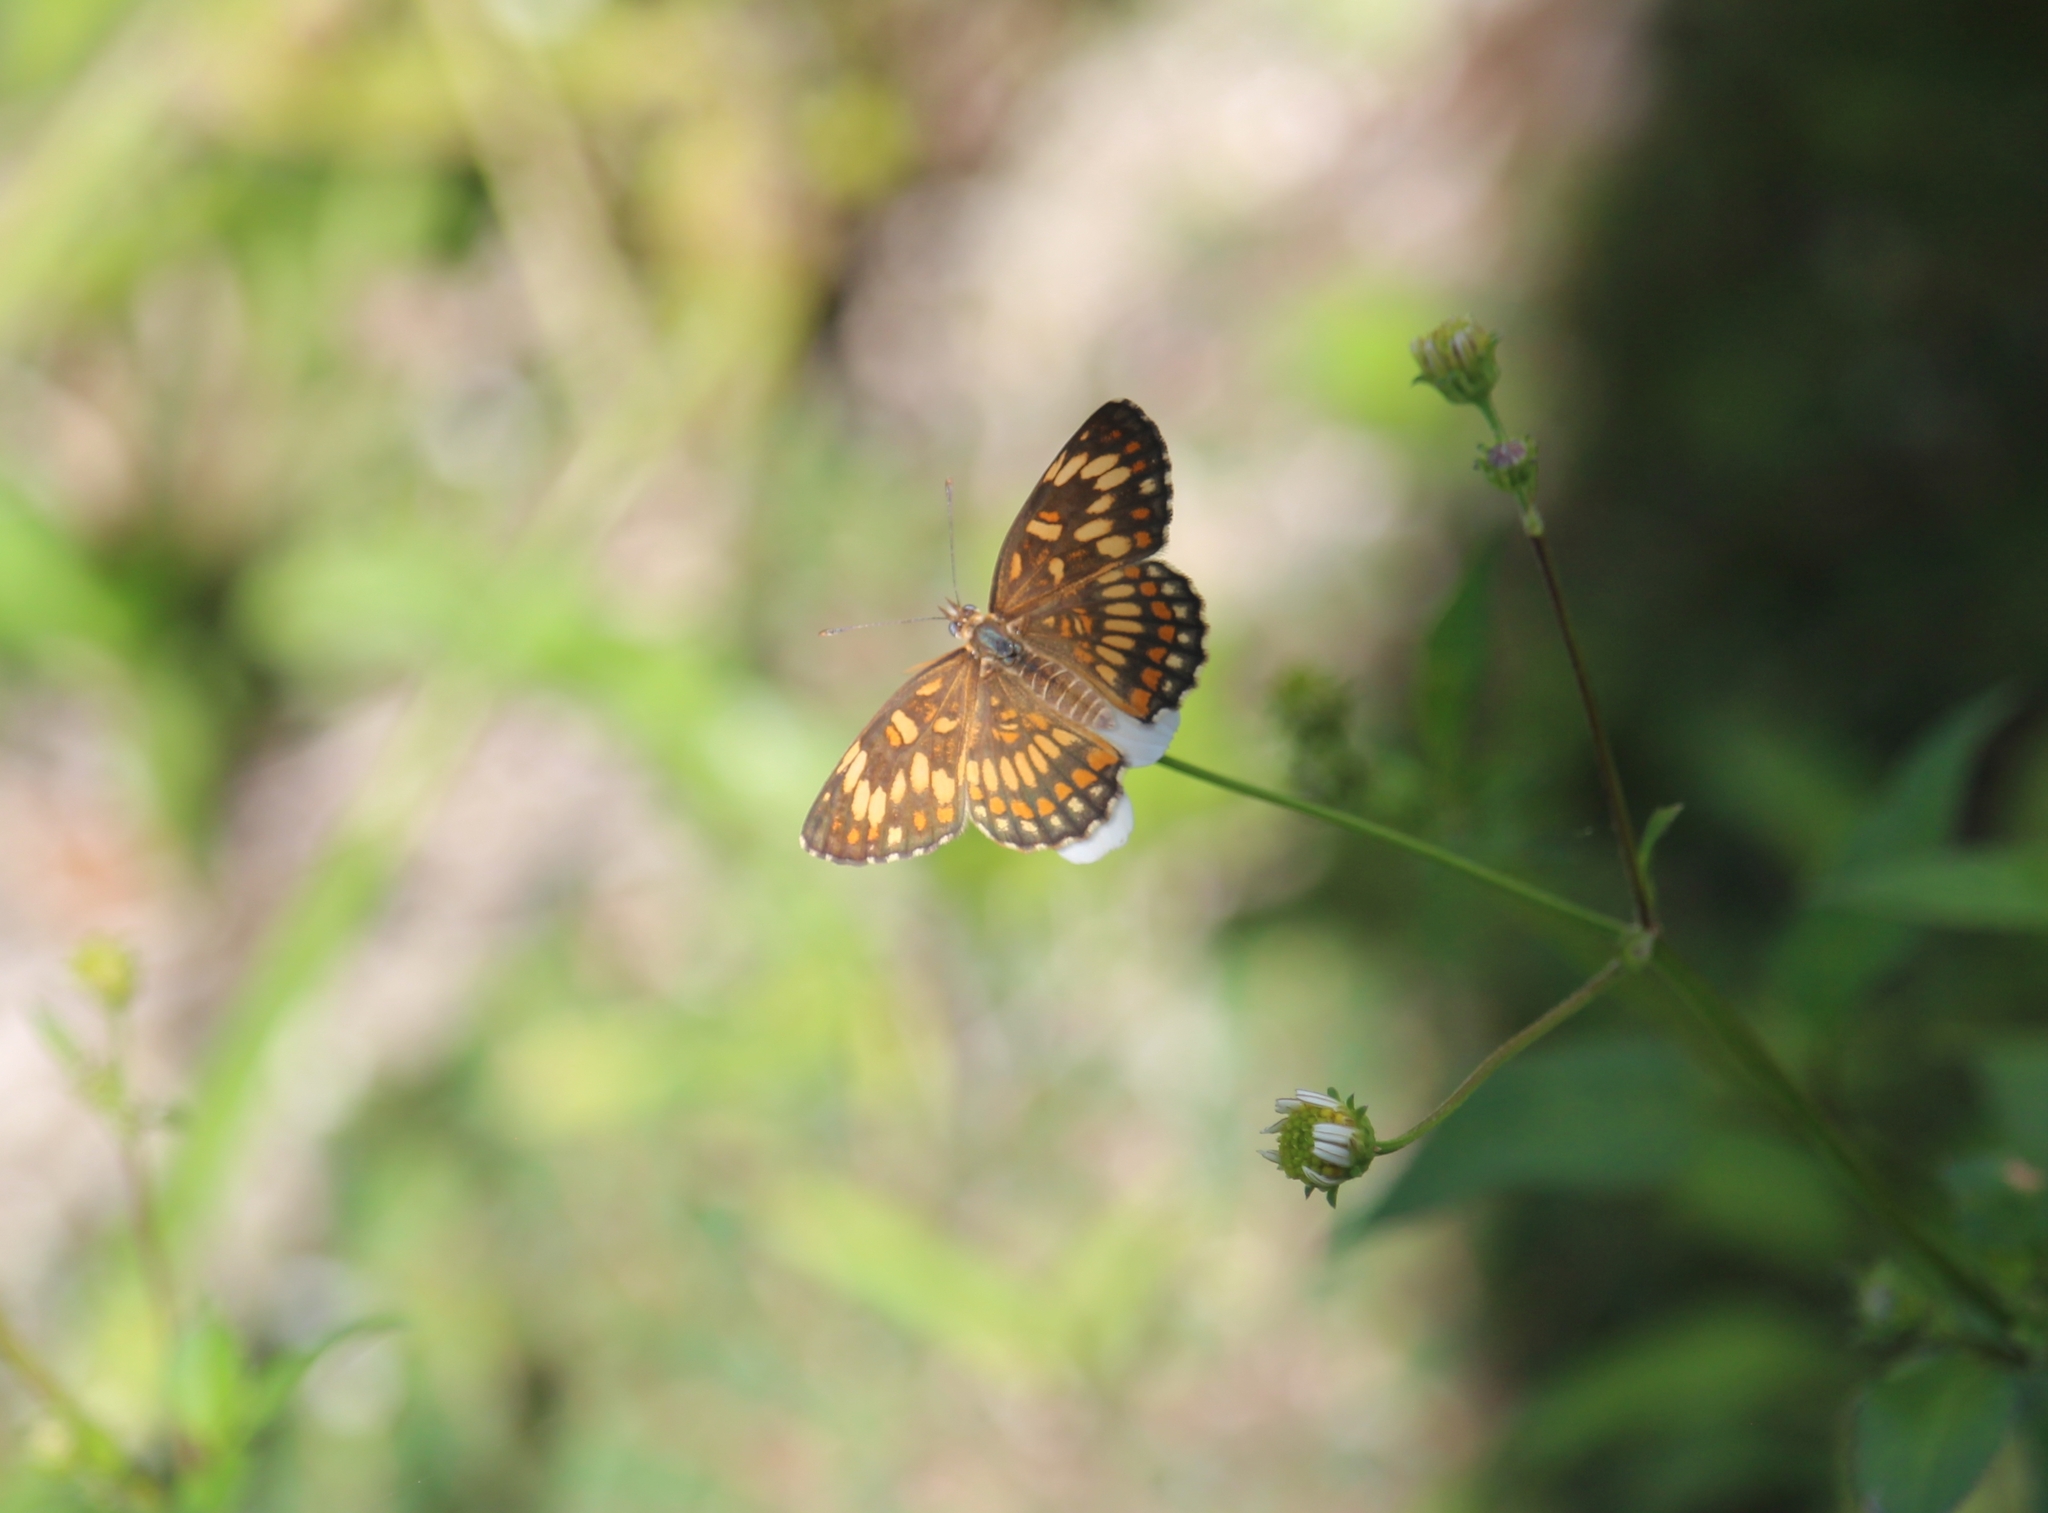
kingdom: Animalia
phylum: Arthropoda
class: Insecta
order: Lepidoptera
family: Nymphalidae
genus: Thessalia
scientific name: Thessalia theona
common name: Nymphalid moth
